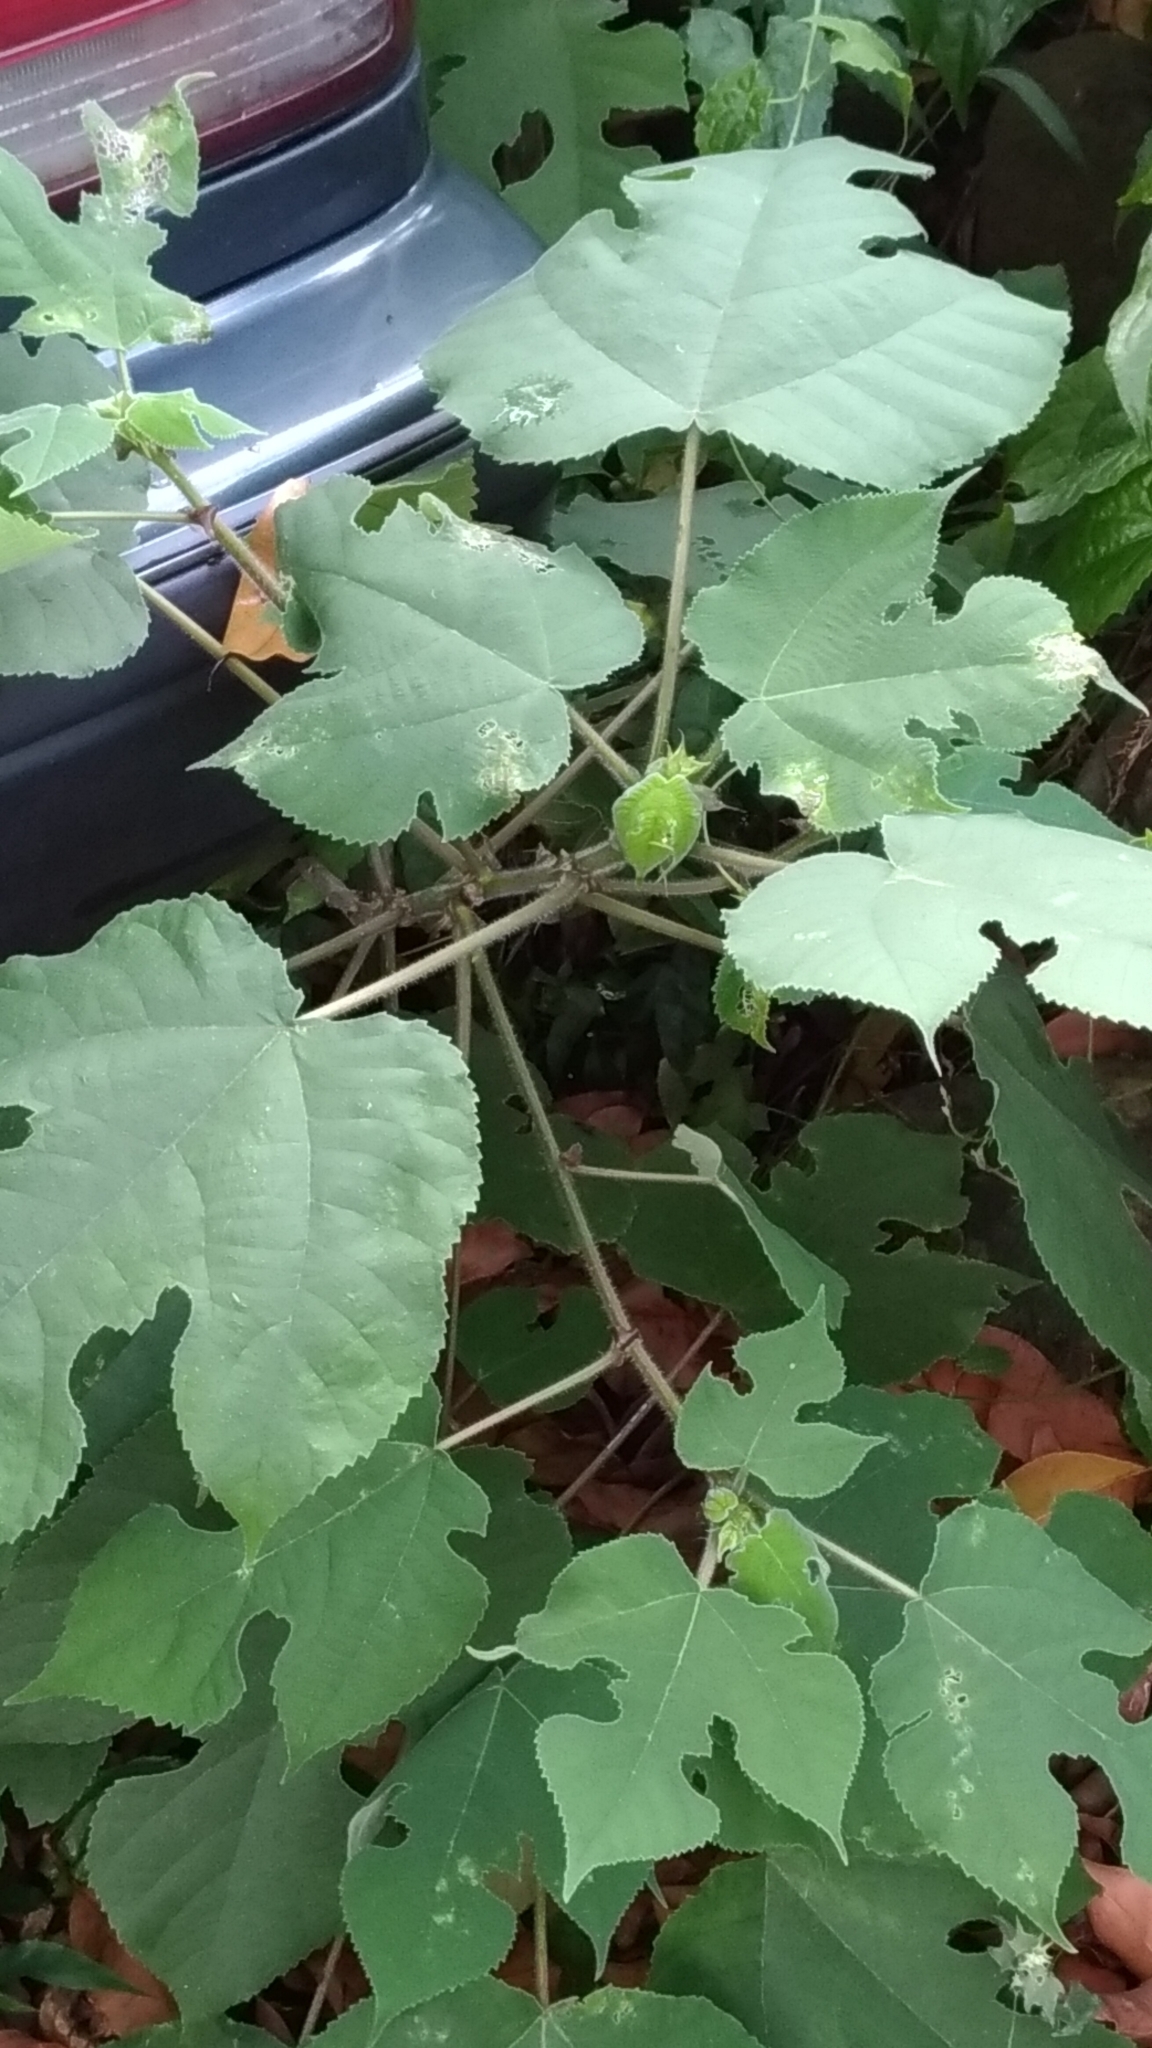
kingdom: Plantae
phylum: Tracheophyta
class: Magnoliopsida
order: Rosales
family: Moraceae
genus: Broussonetia
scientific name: Broussonetia papyrifera
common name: Paper mulberry
